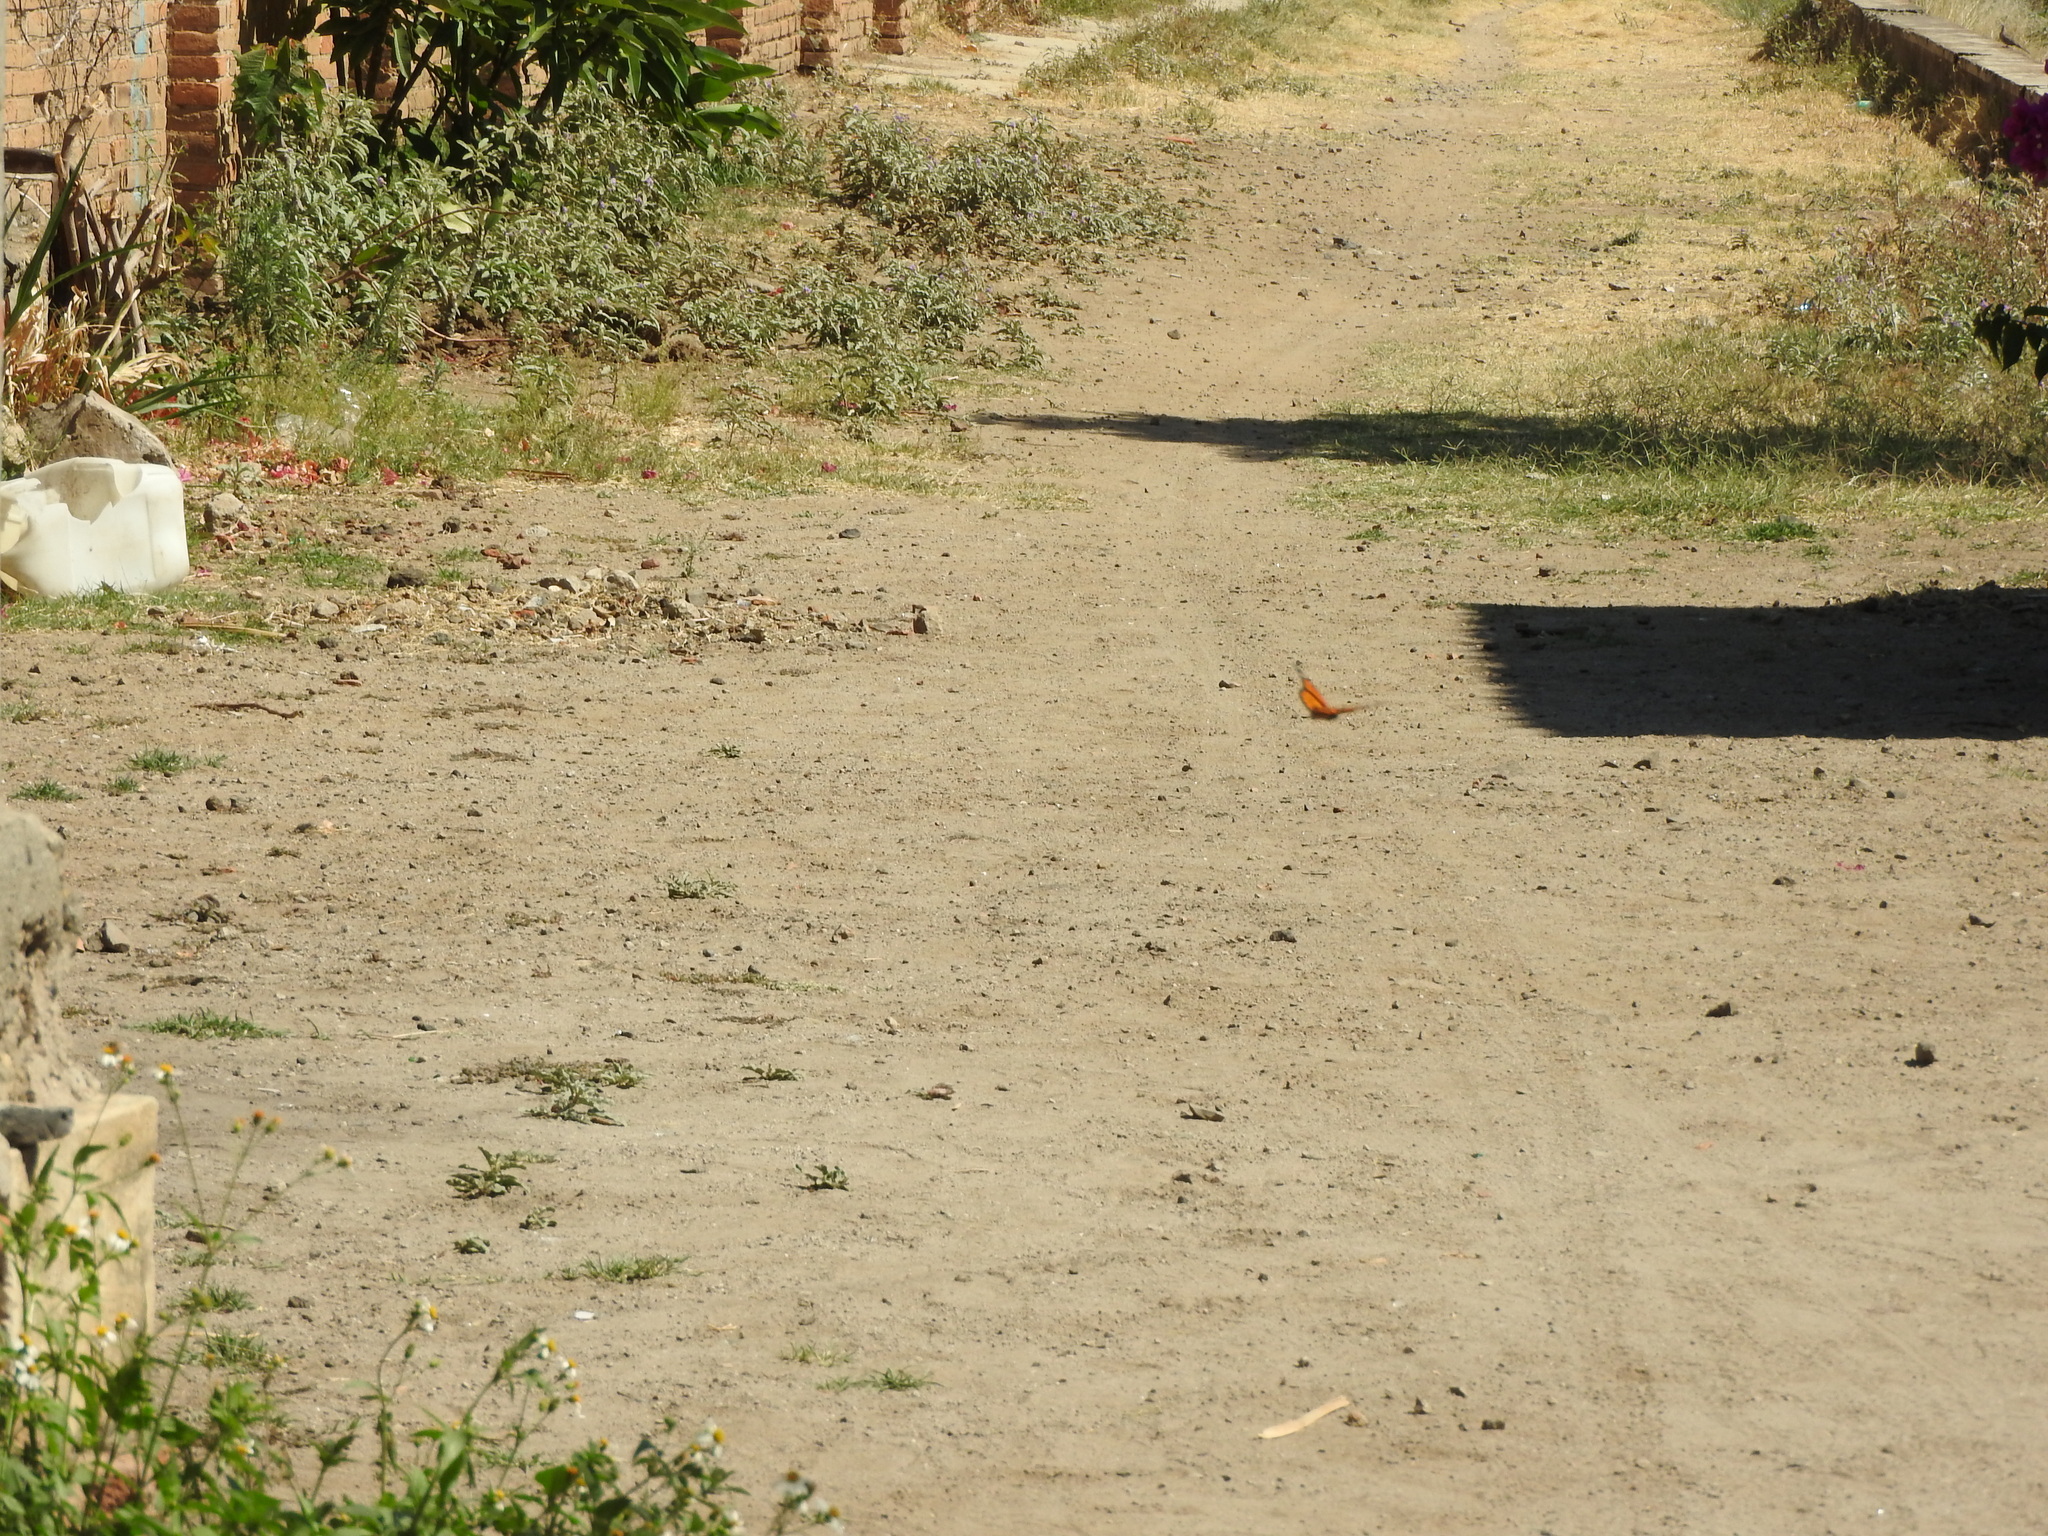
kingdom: Animalia
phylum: Arthropoda
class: Insecta
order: Lepidoptera
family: Nymphalidae
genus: Danaus
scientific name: Danaus plexippus
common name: Monarch
